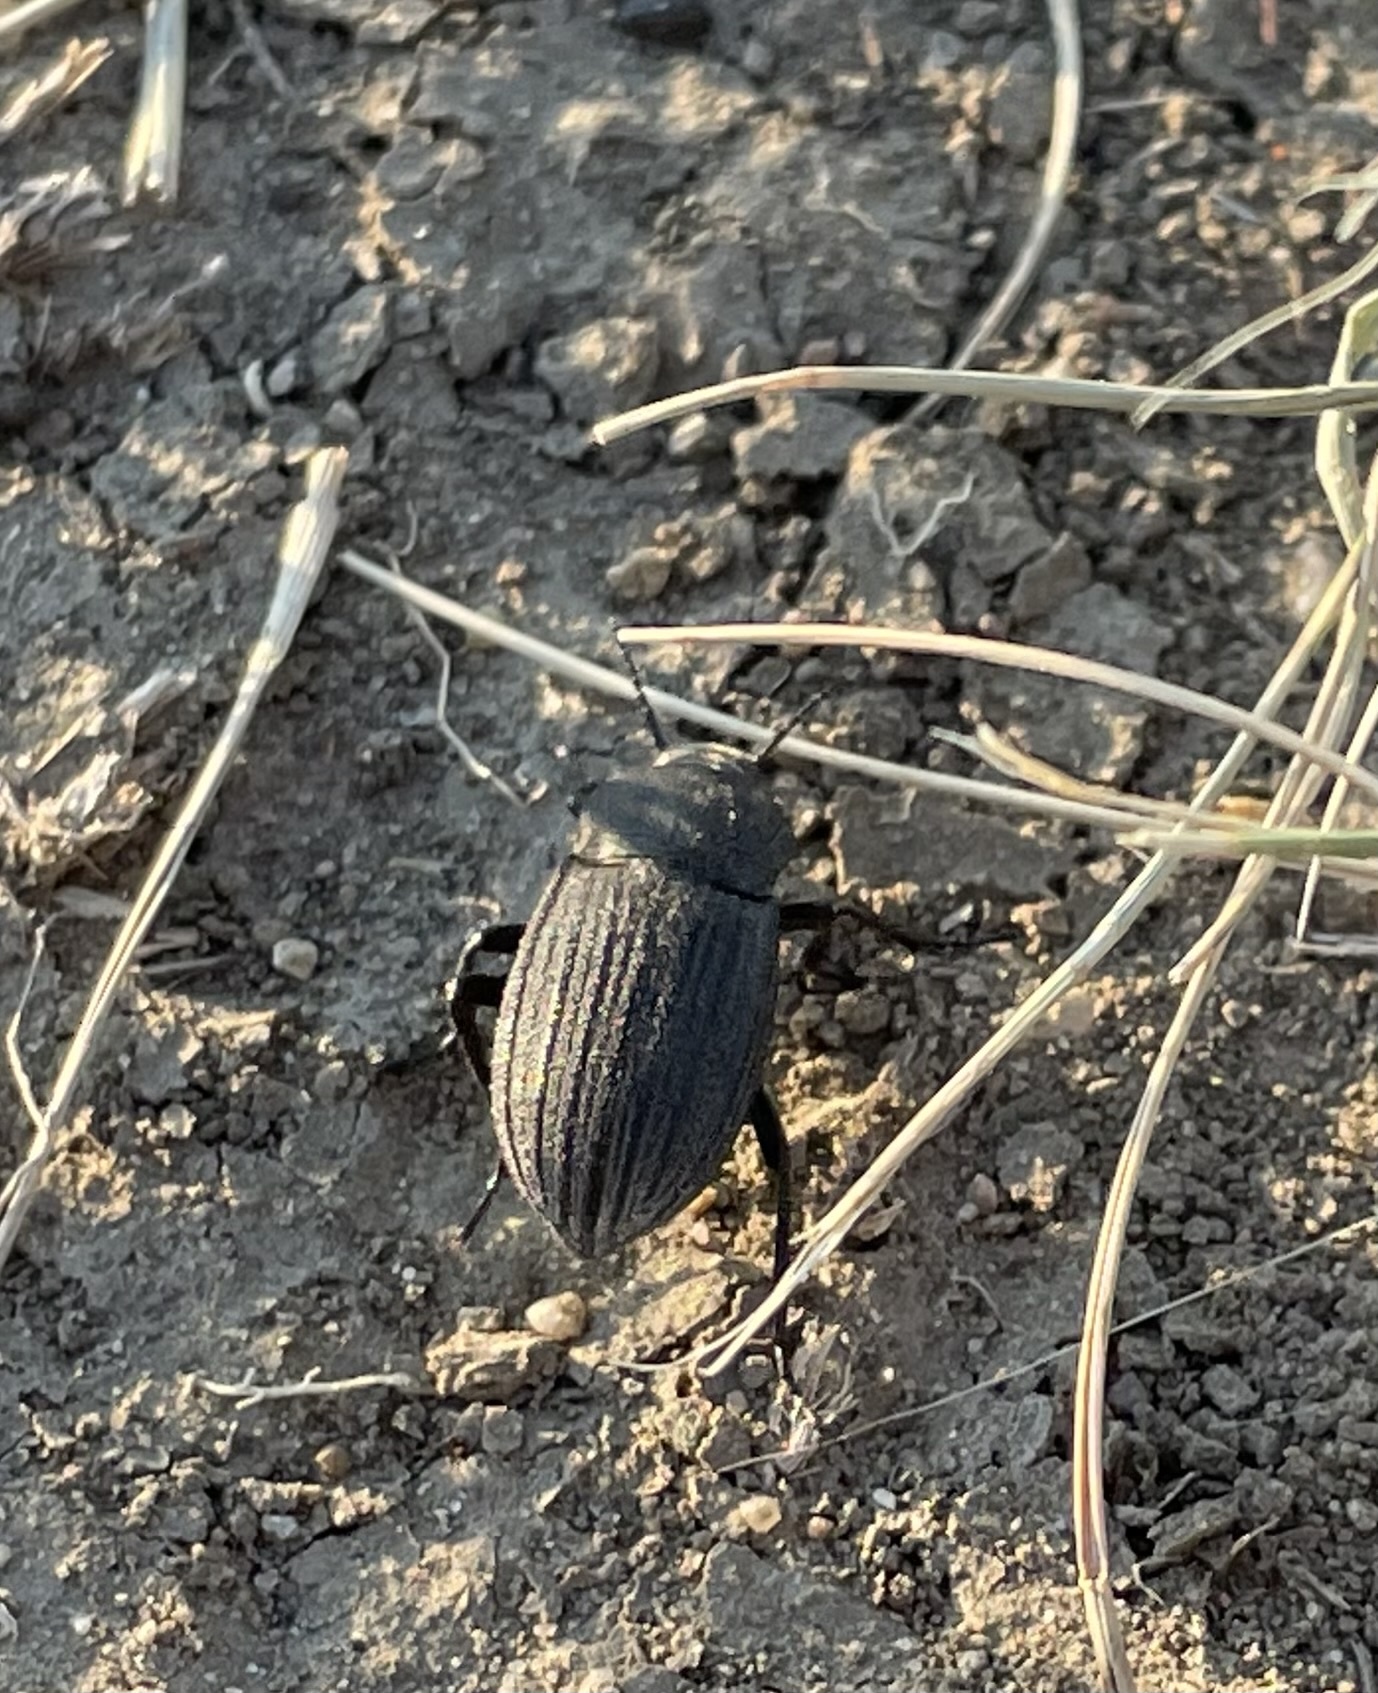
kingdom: Animalia
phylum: Arthropoda
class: Insecta
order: Coleoptera
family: Tenebrionidae
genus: Eleodes
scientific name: Eleodes tricostata
